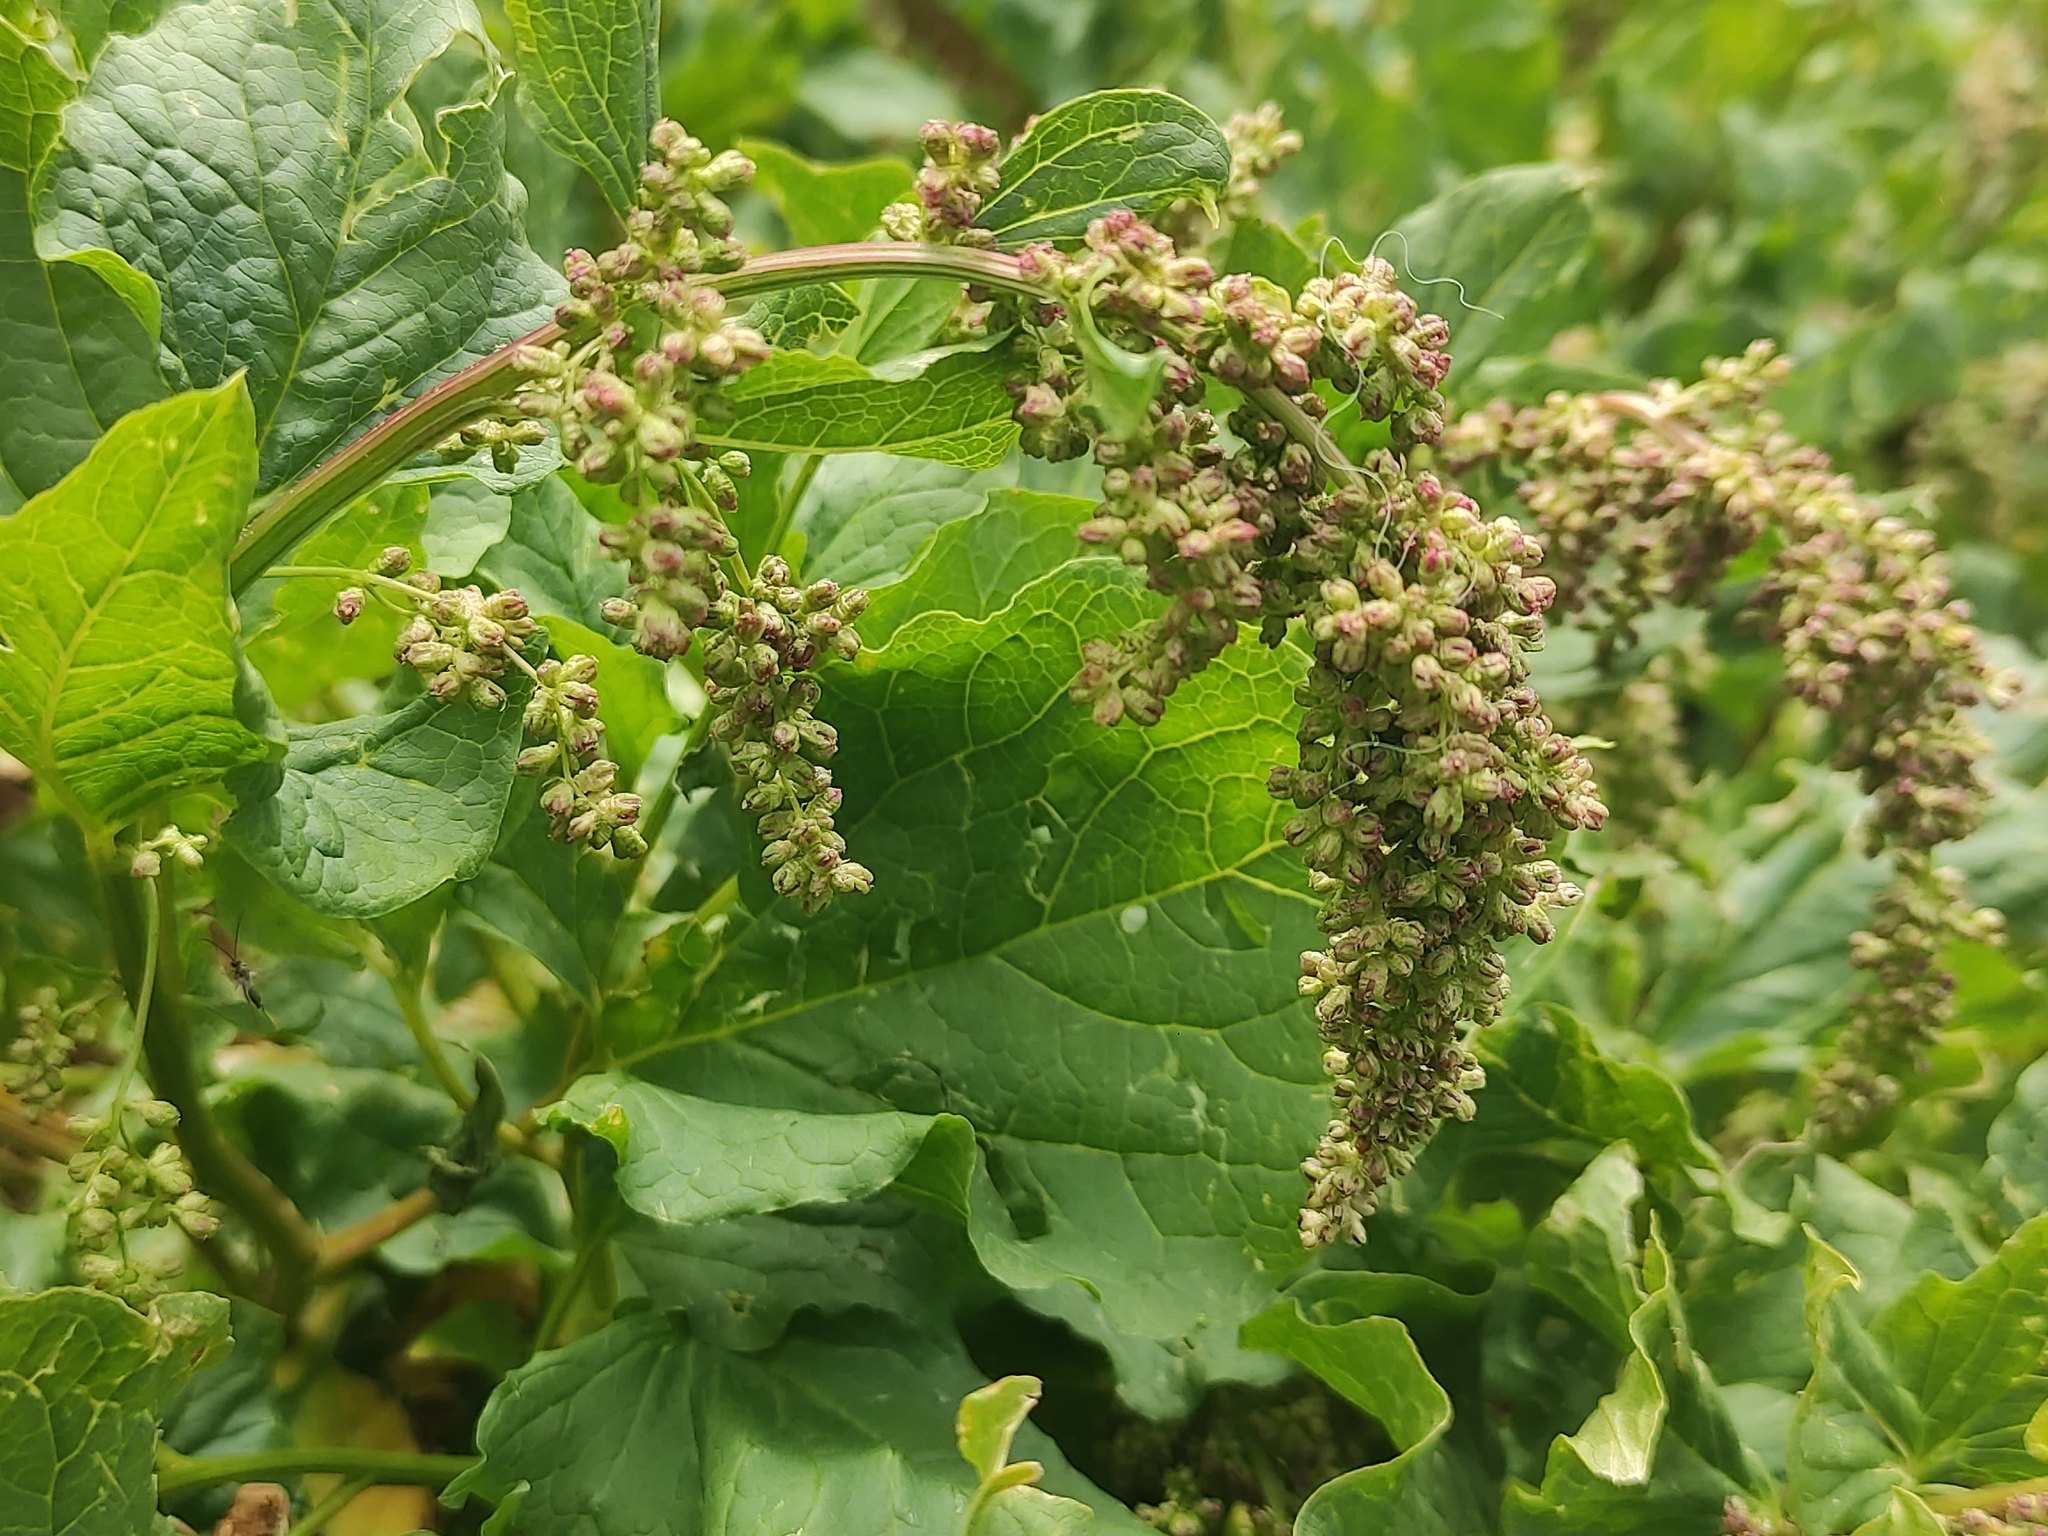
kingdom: Plantae
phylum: Tracheophyta
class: Magnoliopsida
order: Caryophyllales
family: Amaranthaceae
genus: Blitum
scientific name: Blitum bonus-henricus
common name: Good king henry
